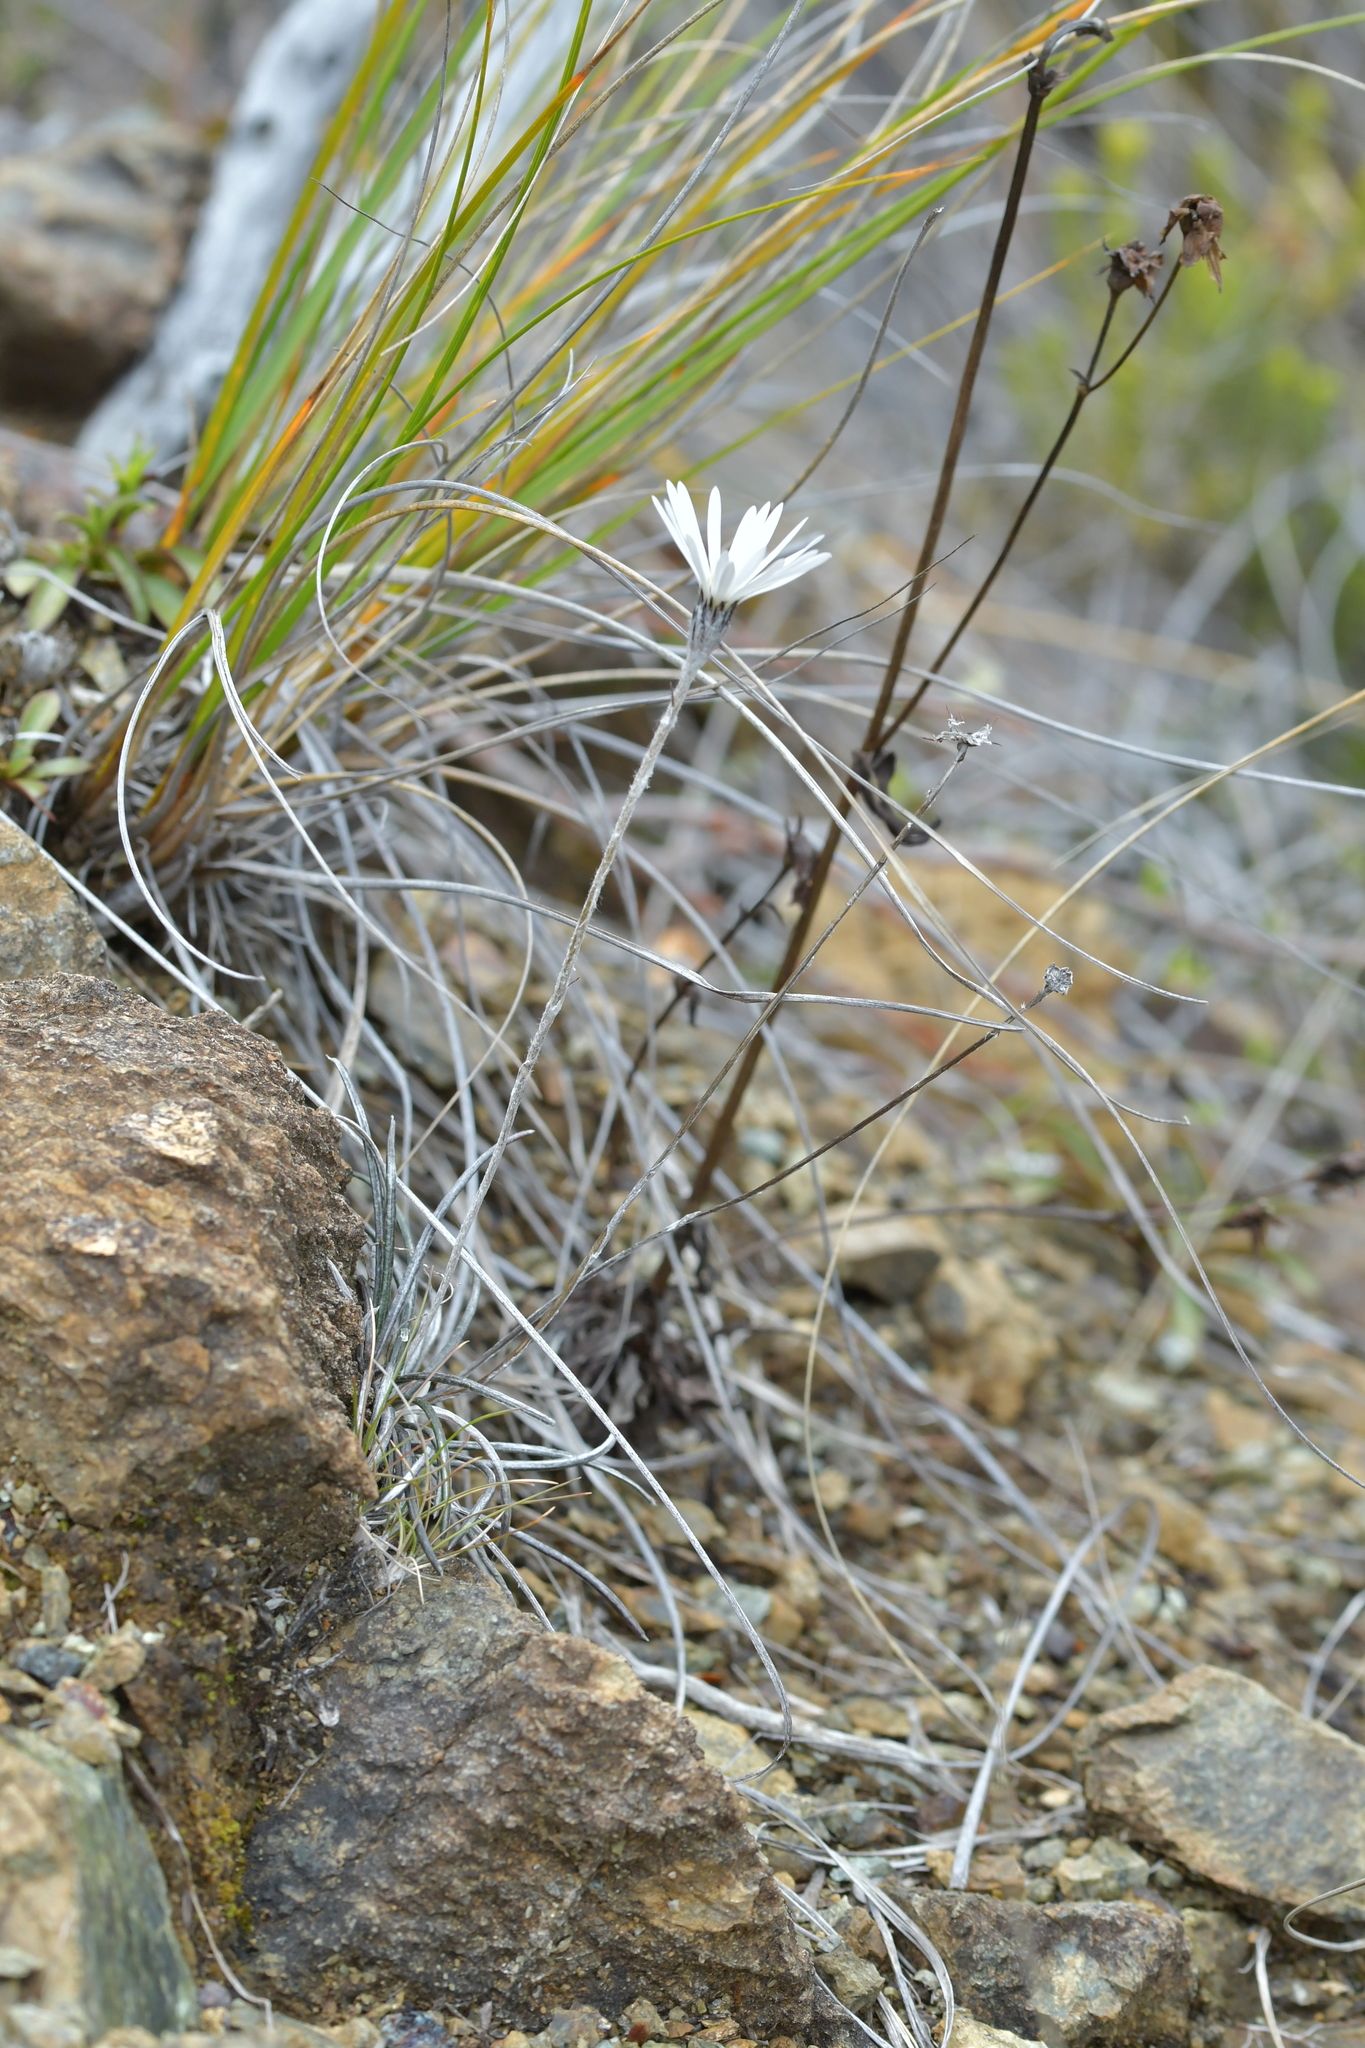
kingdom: Plantae
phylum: Tracheophyta
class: Magnoliopsida
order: Asterales
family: Asteraceae
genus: Celmisia
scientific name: Celmisia gracilenta
